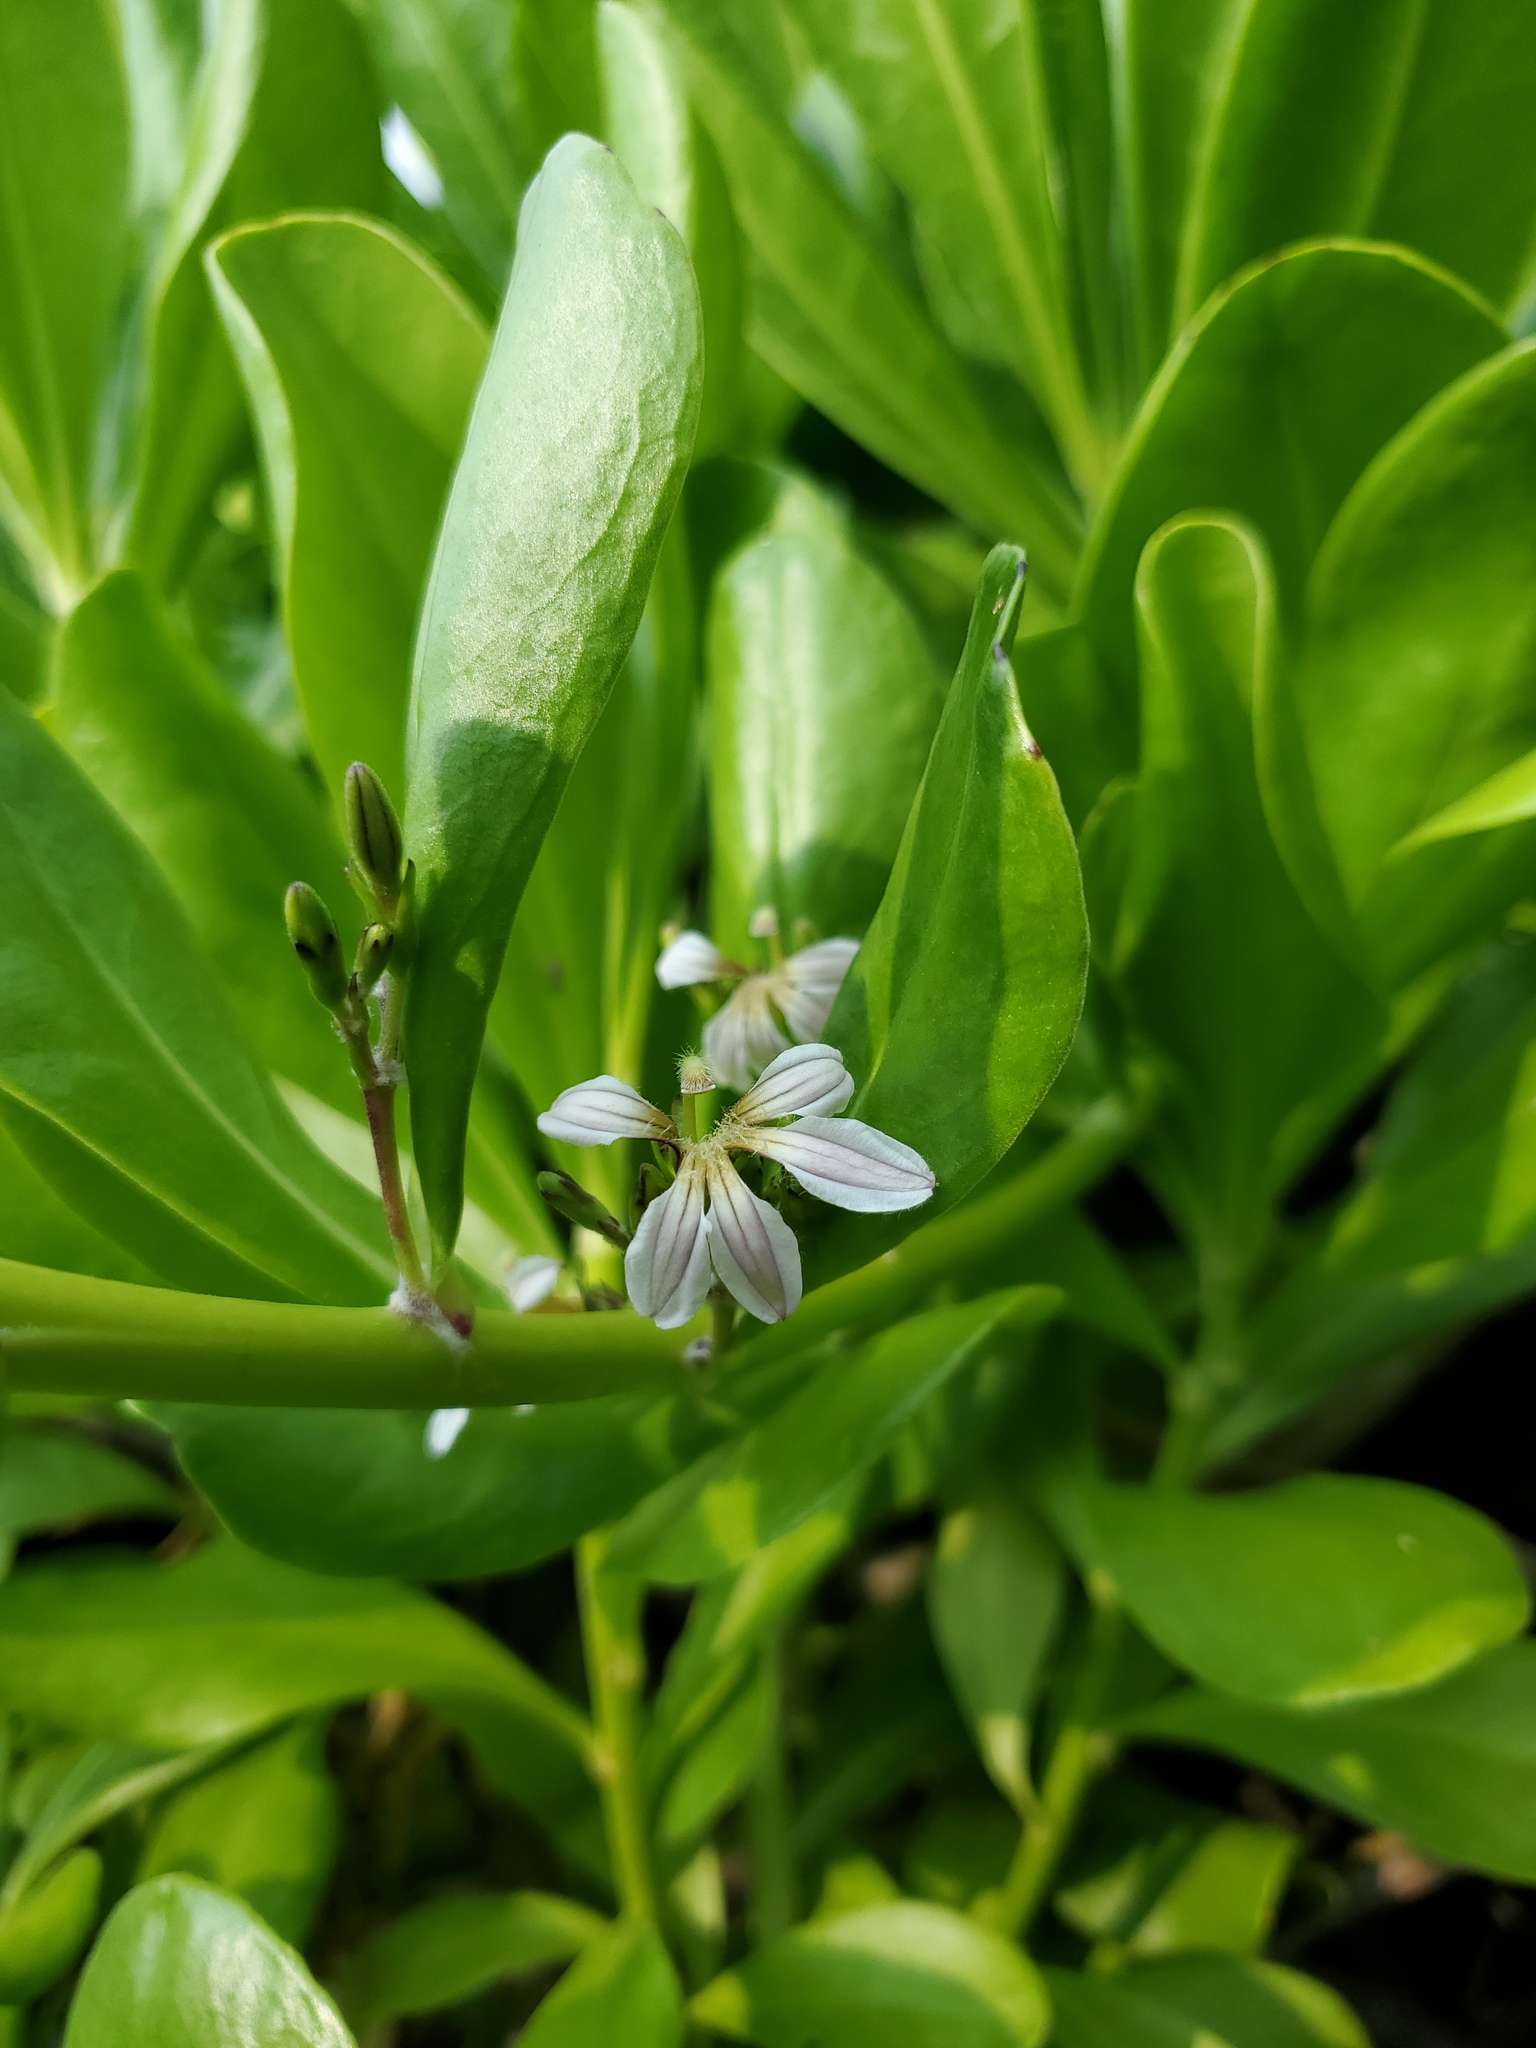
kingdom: Plantae
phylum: Tracheophyta
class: Magnoliopsida
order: Asterales
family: Goodeniaceae
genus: Scaevola
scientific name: Scaevola taccada
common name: Sea lettucetree
